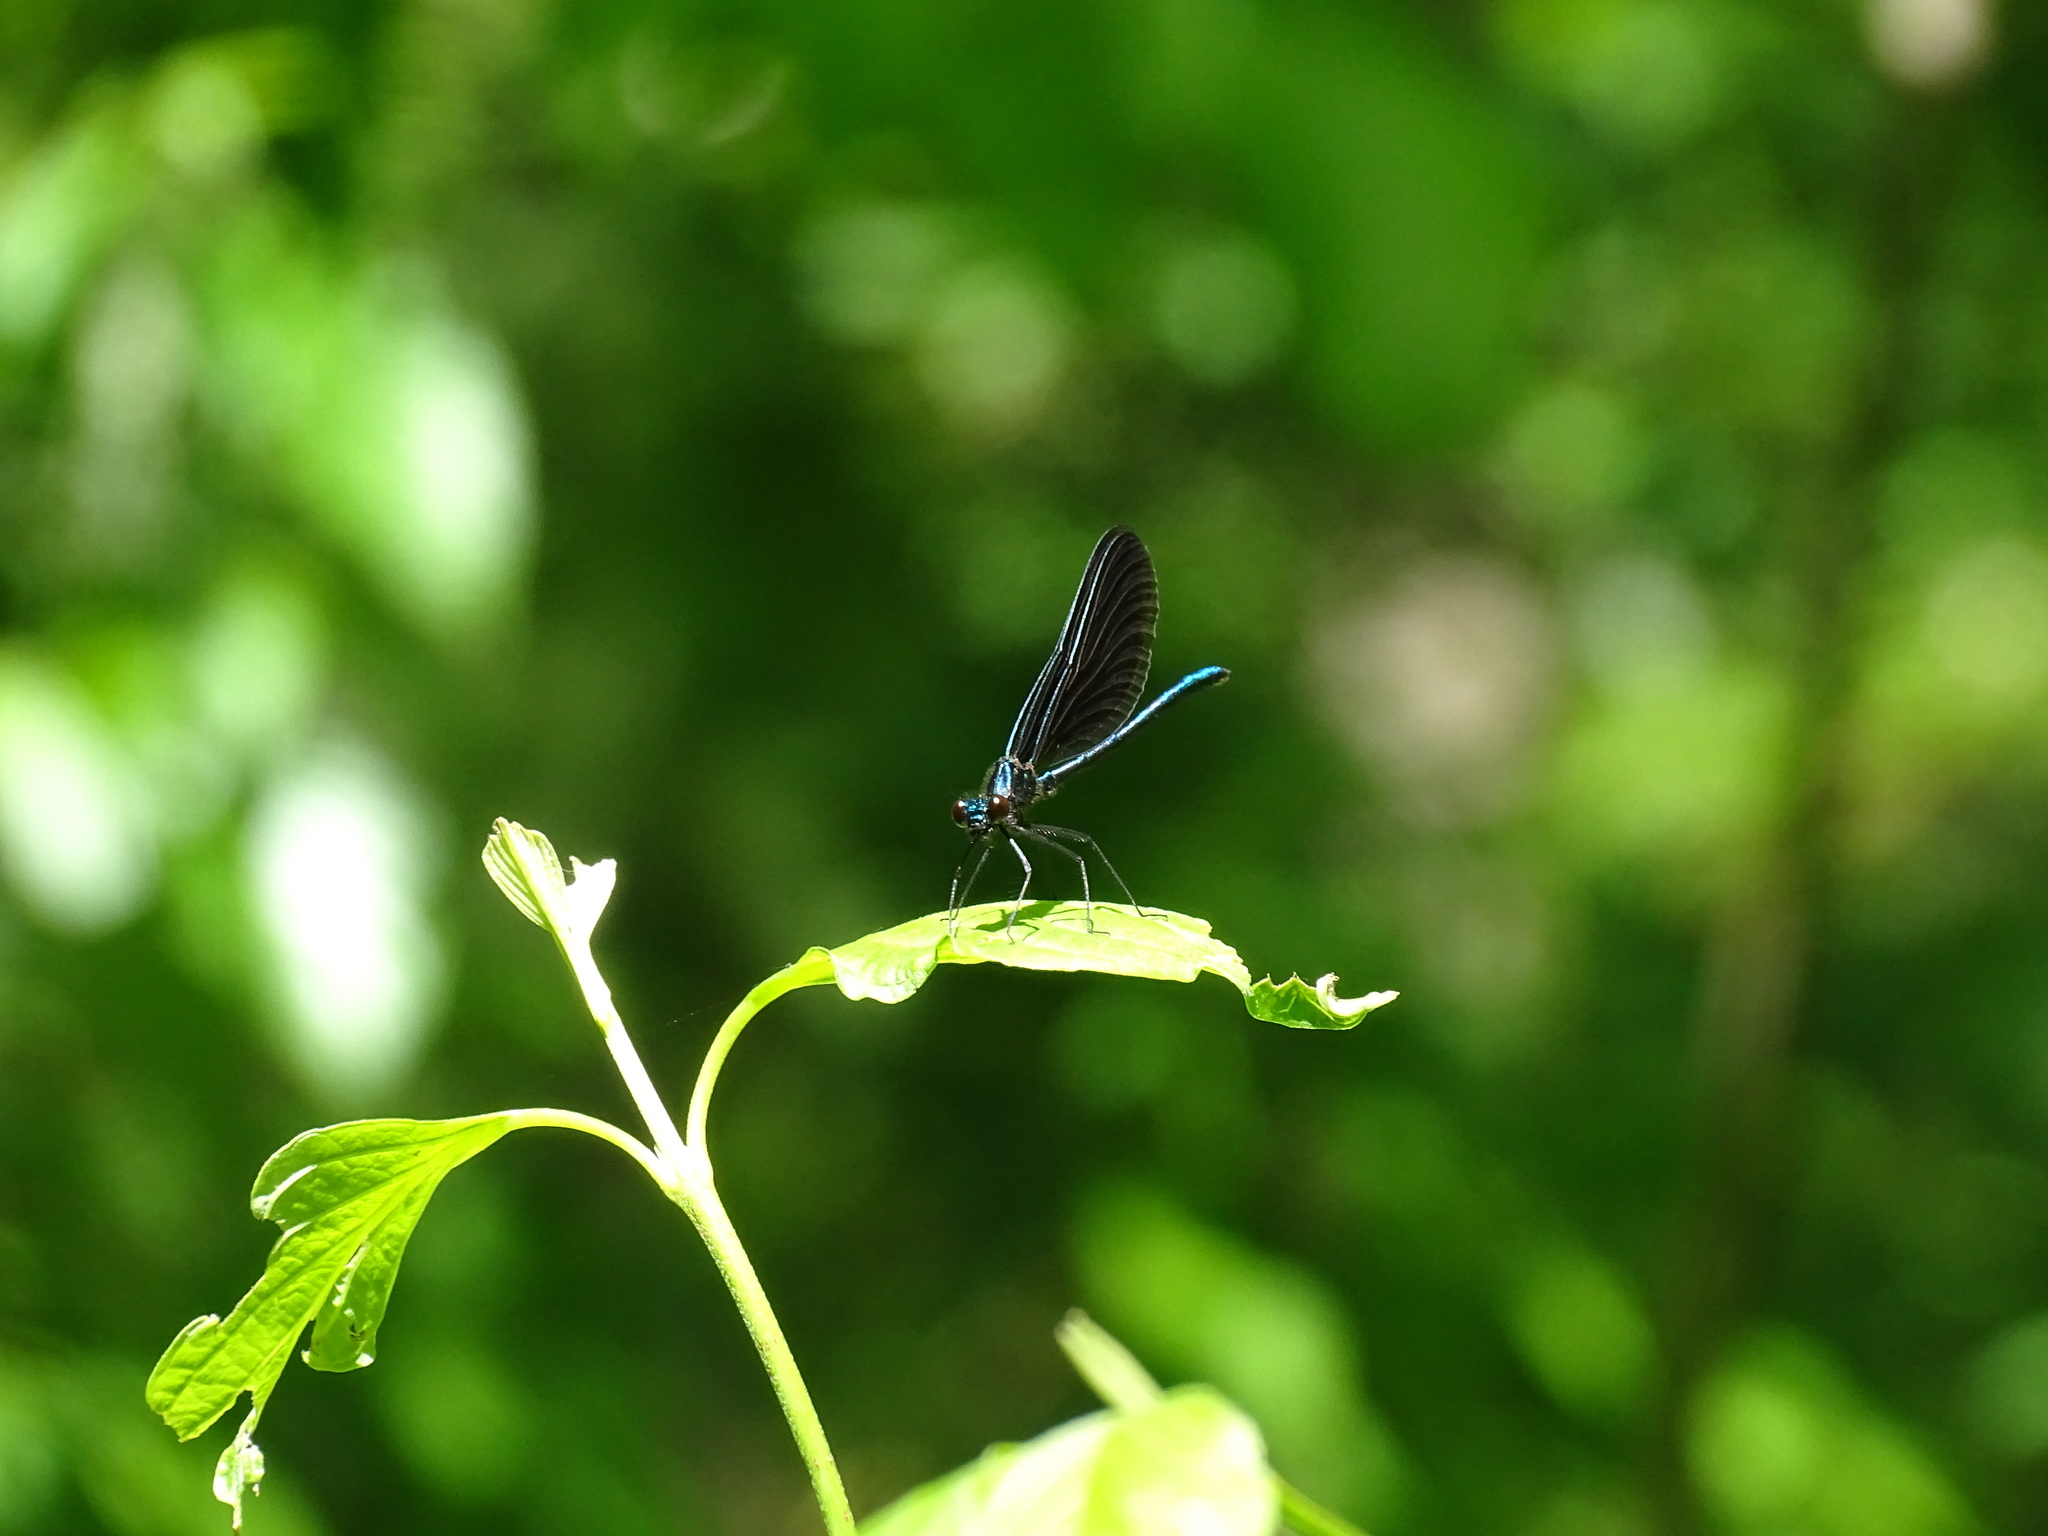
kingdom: Animalia
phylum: Arthropoda
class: Insecta
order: Odonata
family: Calopterygidae
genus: Calopteryx
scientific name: Calopteryx maculata
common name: Ebony jewelwing
